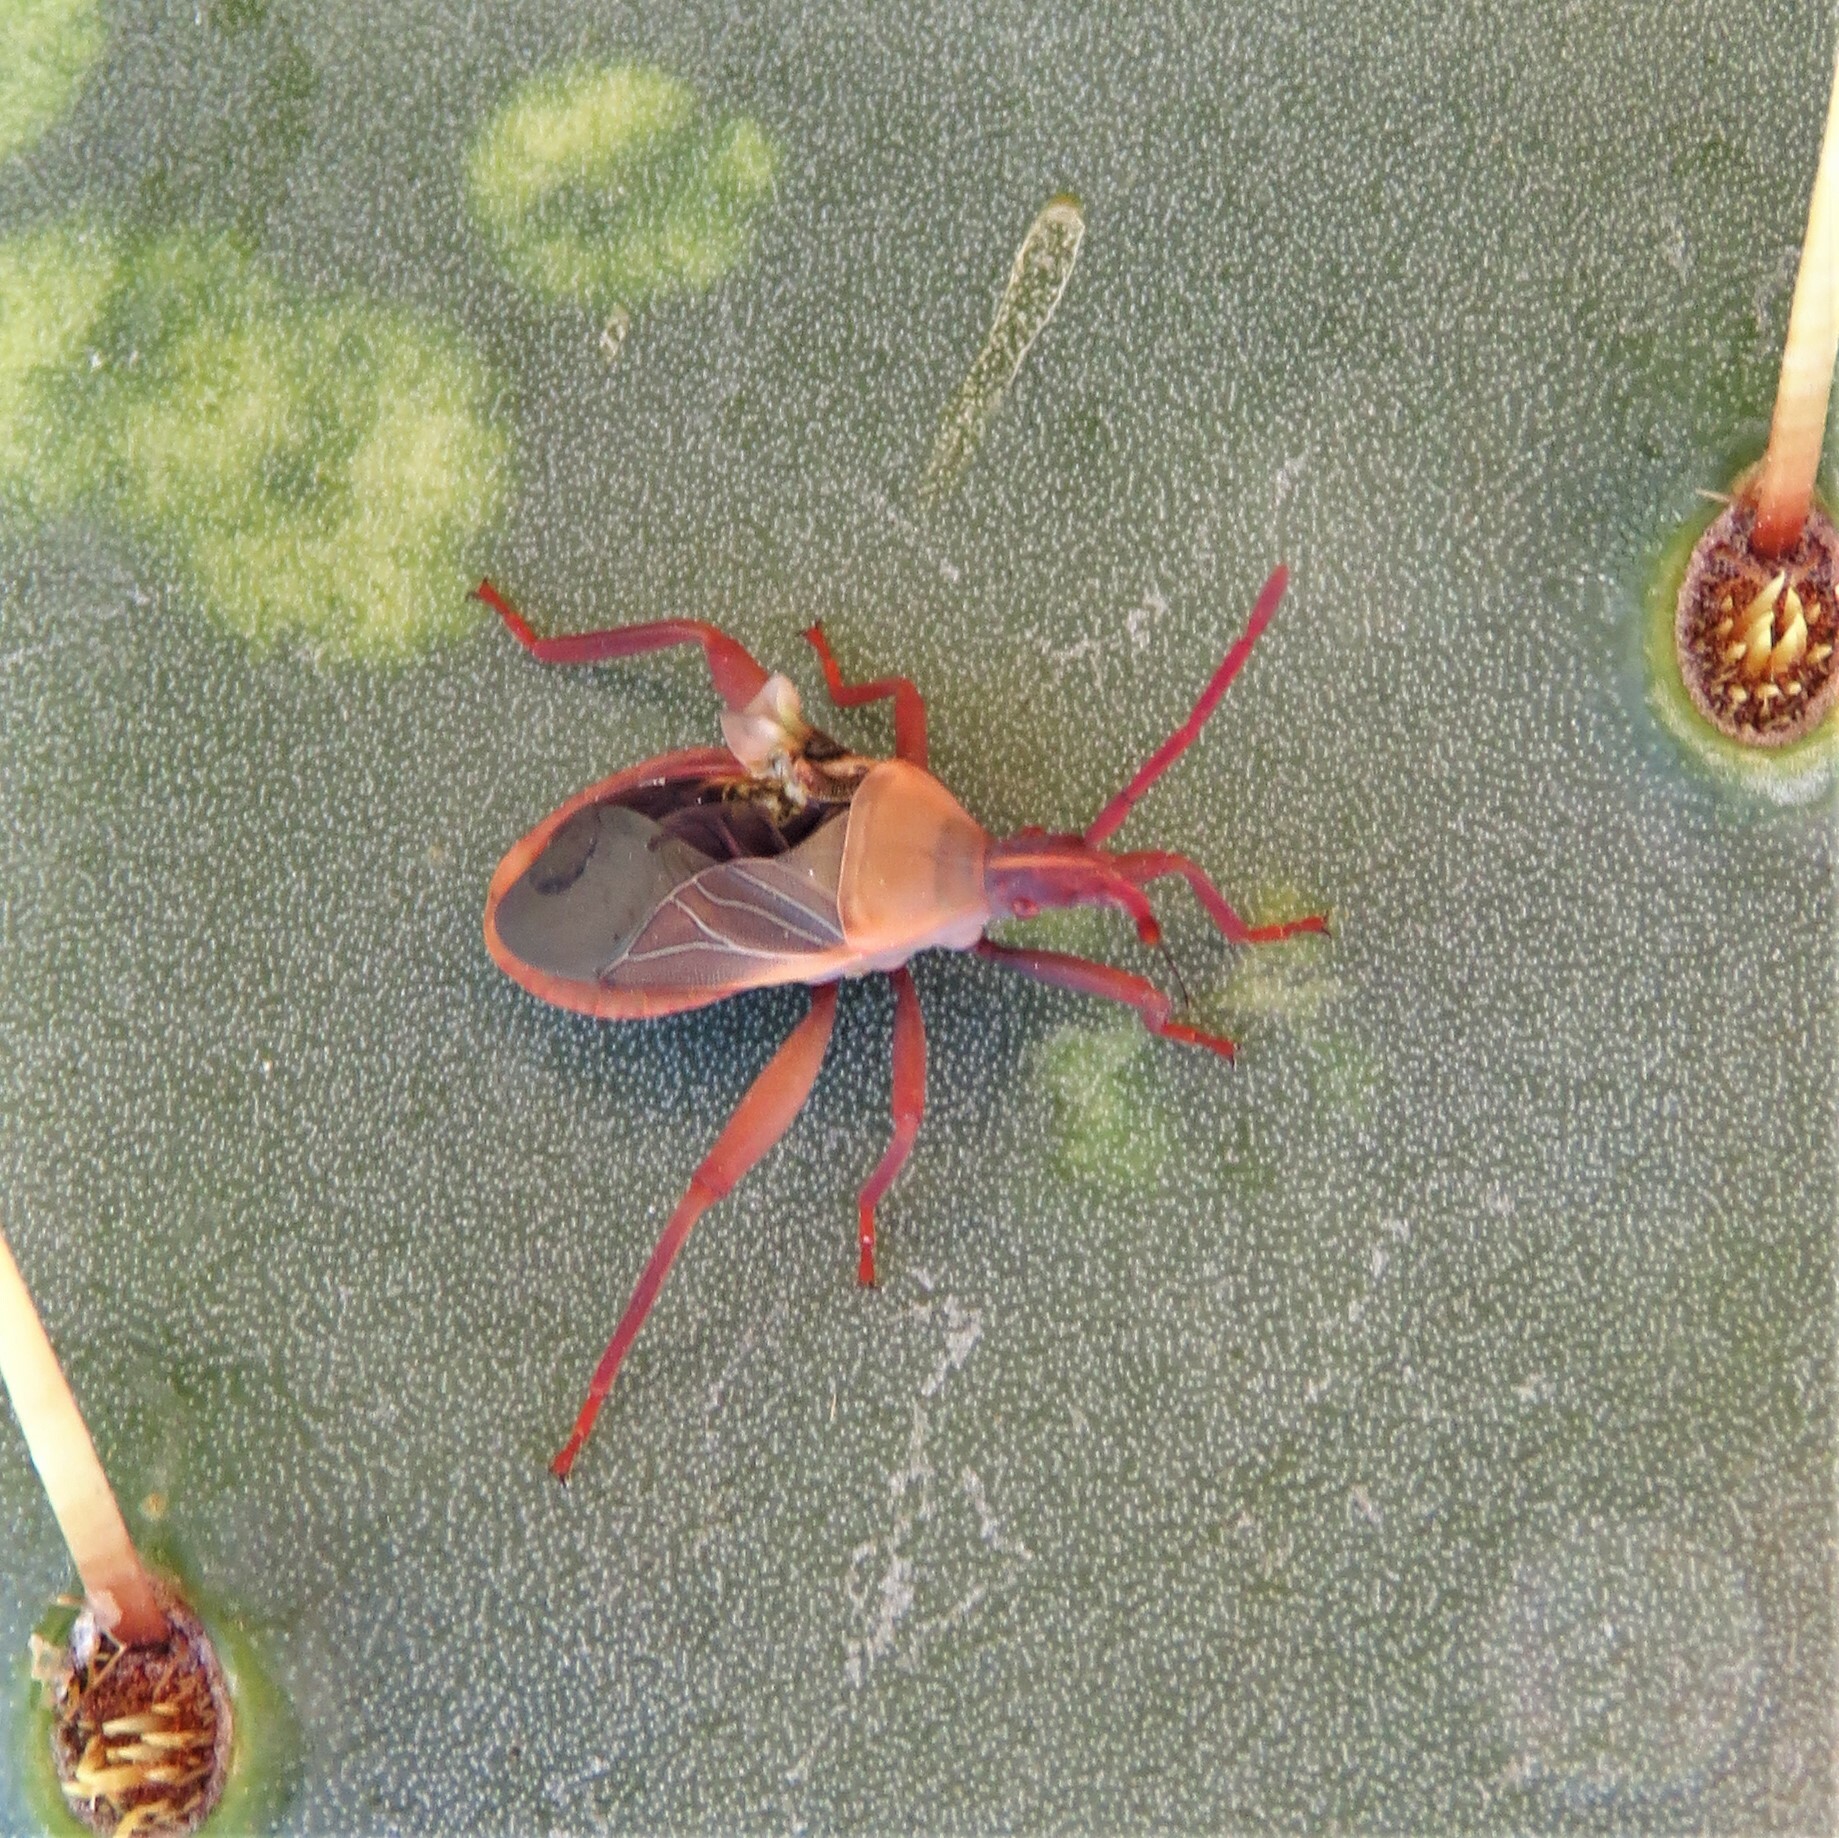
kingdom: Animalia
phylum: Arthropoda
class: Insecta
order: Hemiptera
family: Coreidae
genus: Chelinidea
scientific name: Chelinidea vittiger
